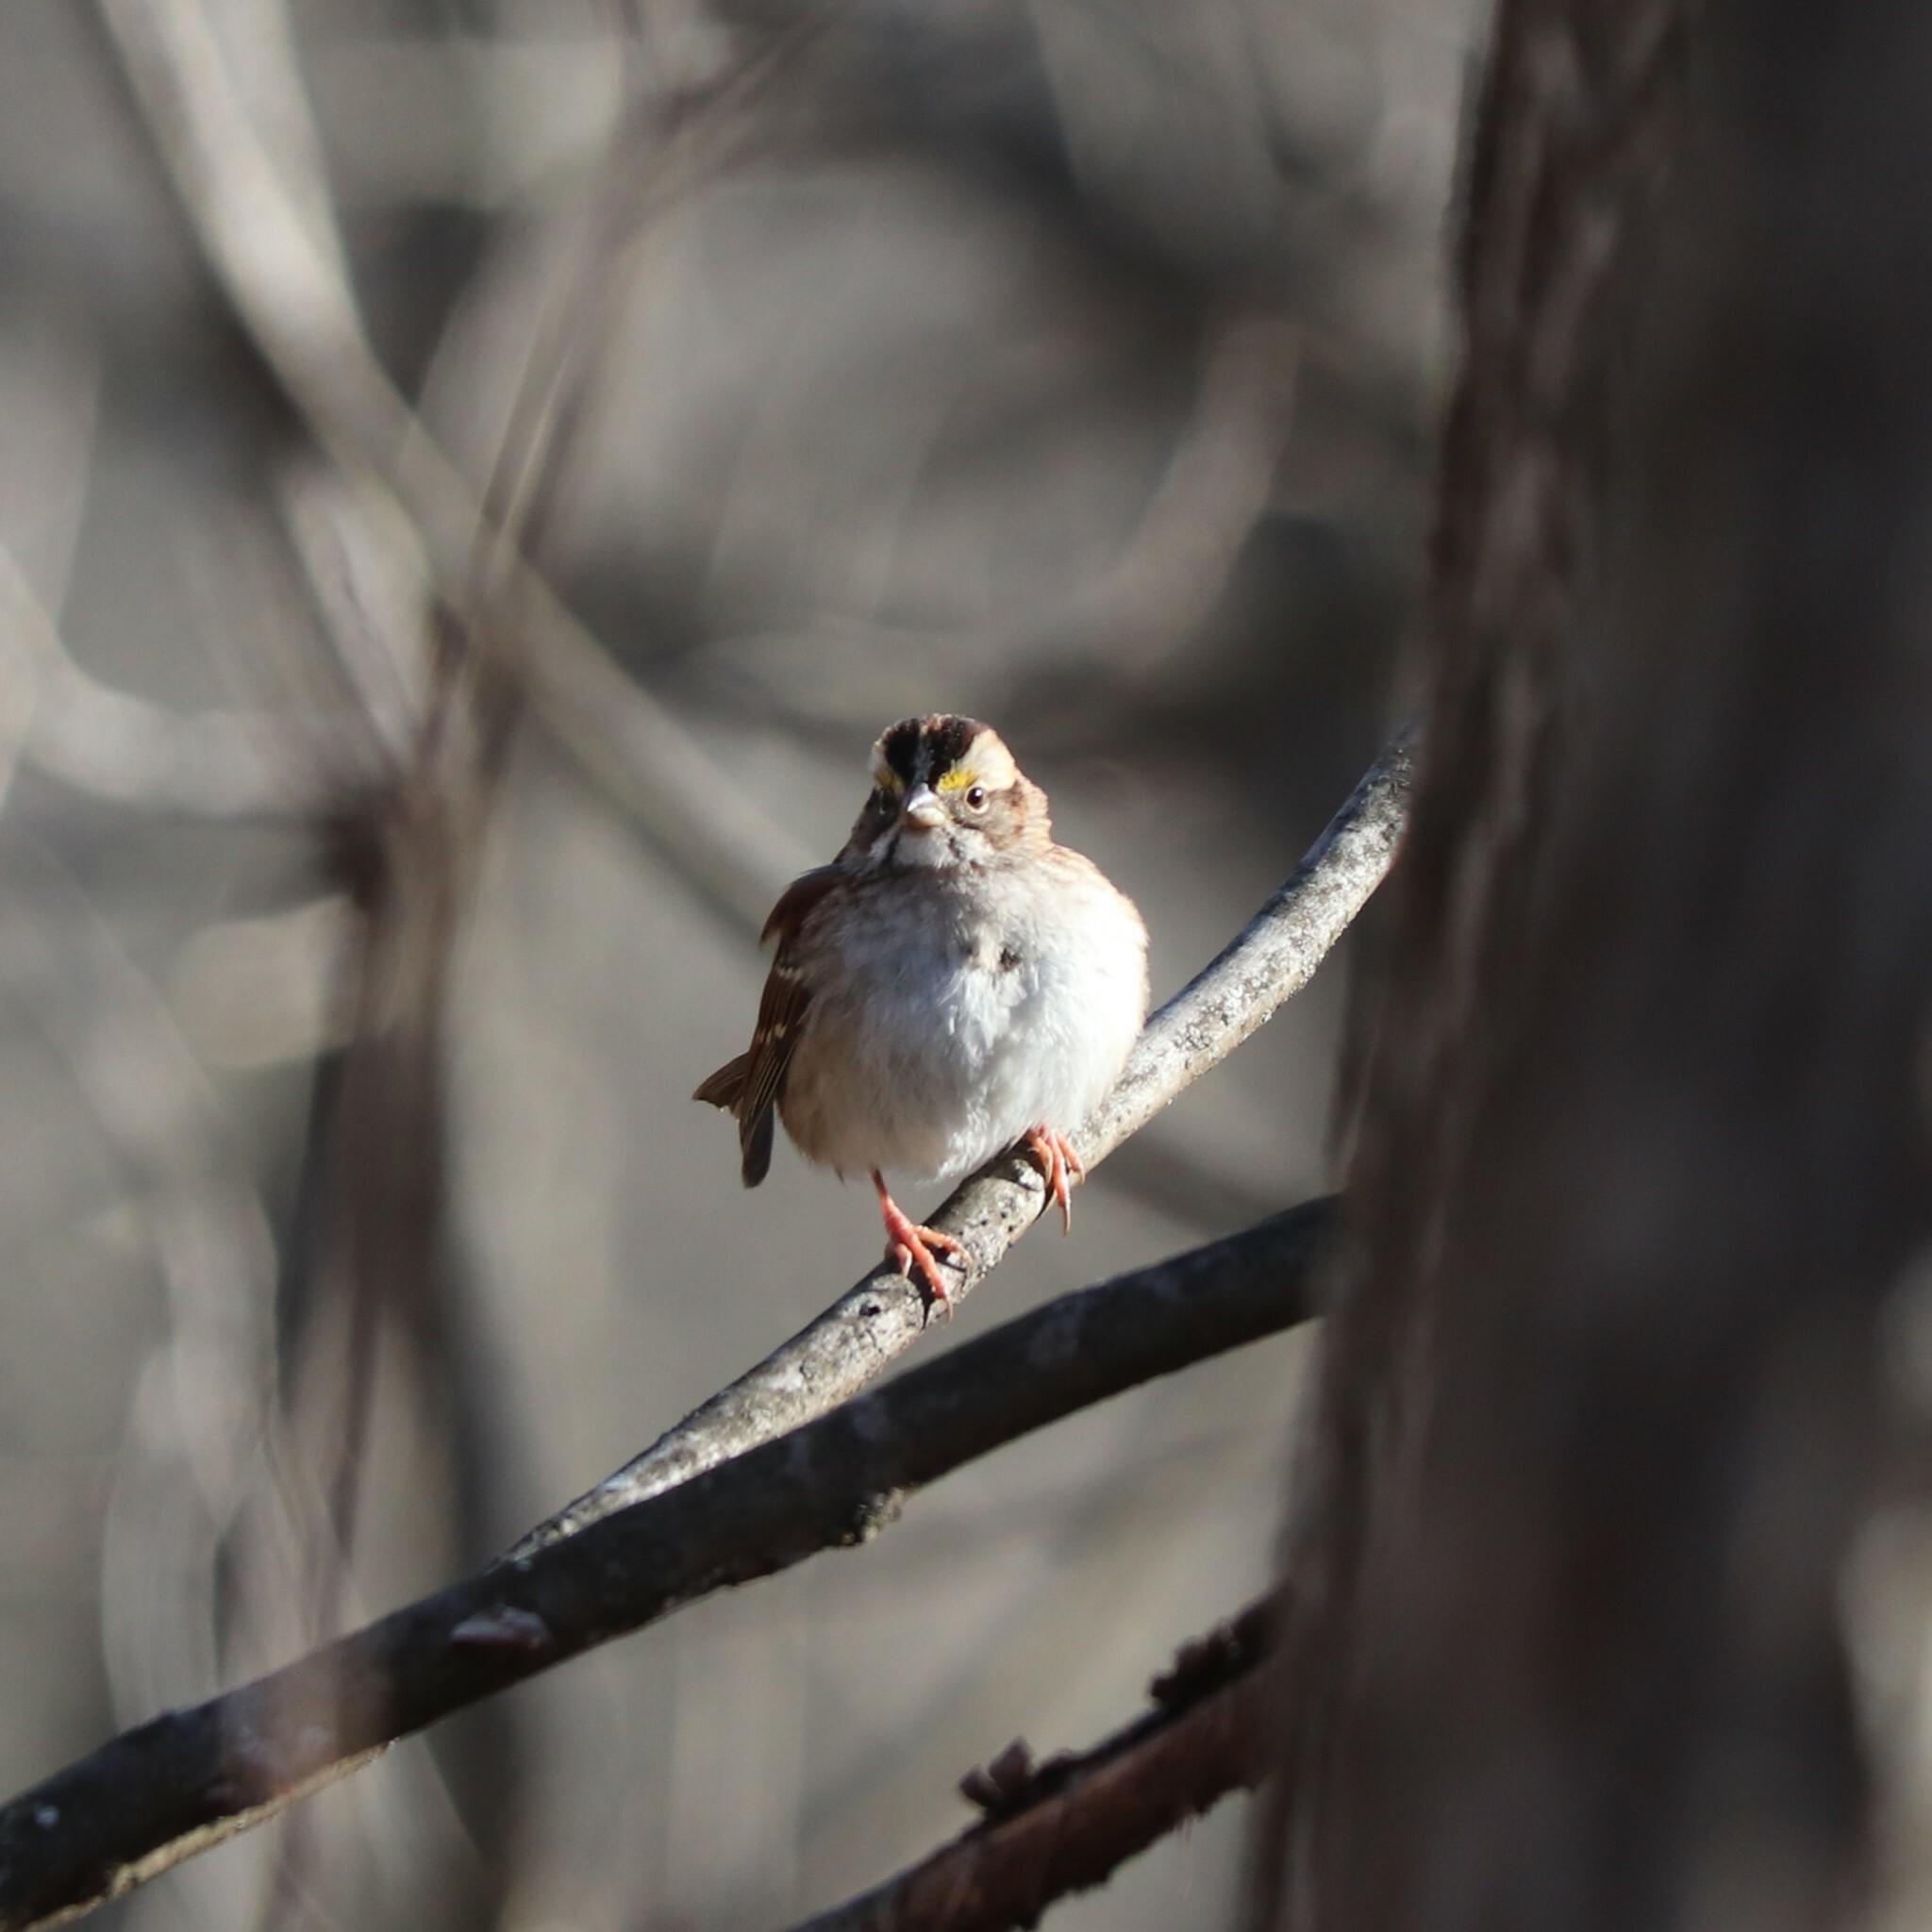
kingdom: Animalia
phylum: Chordata
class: Aves
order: Passeriformes
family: Passerellidae
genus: Zonotrichia
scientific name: Zonotrichia albicollis
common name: White-throated sparrow
